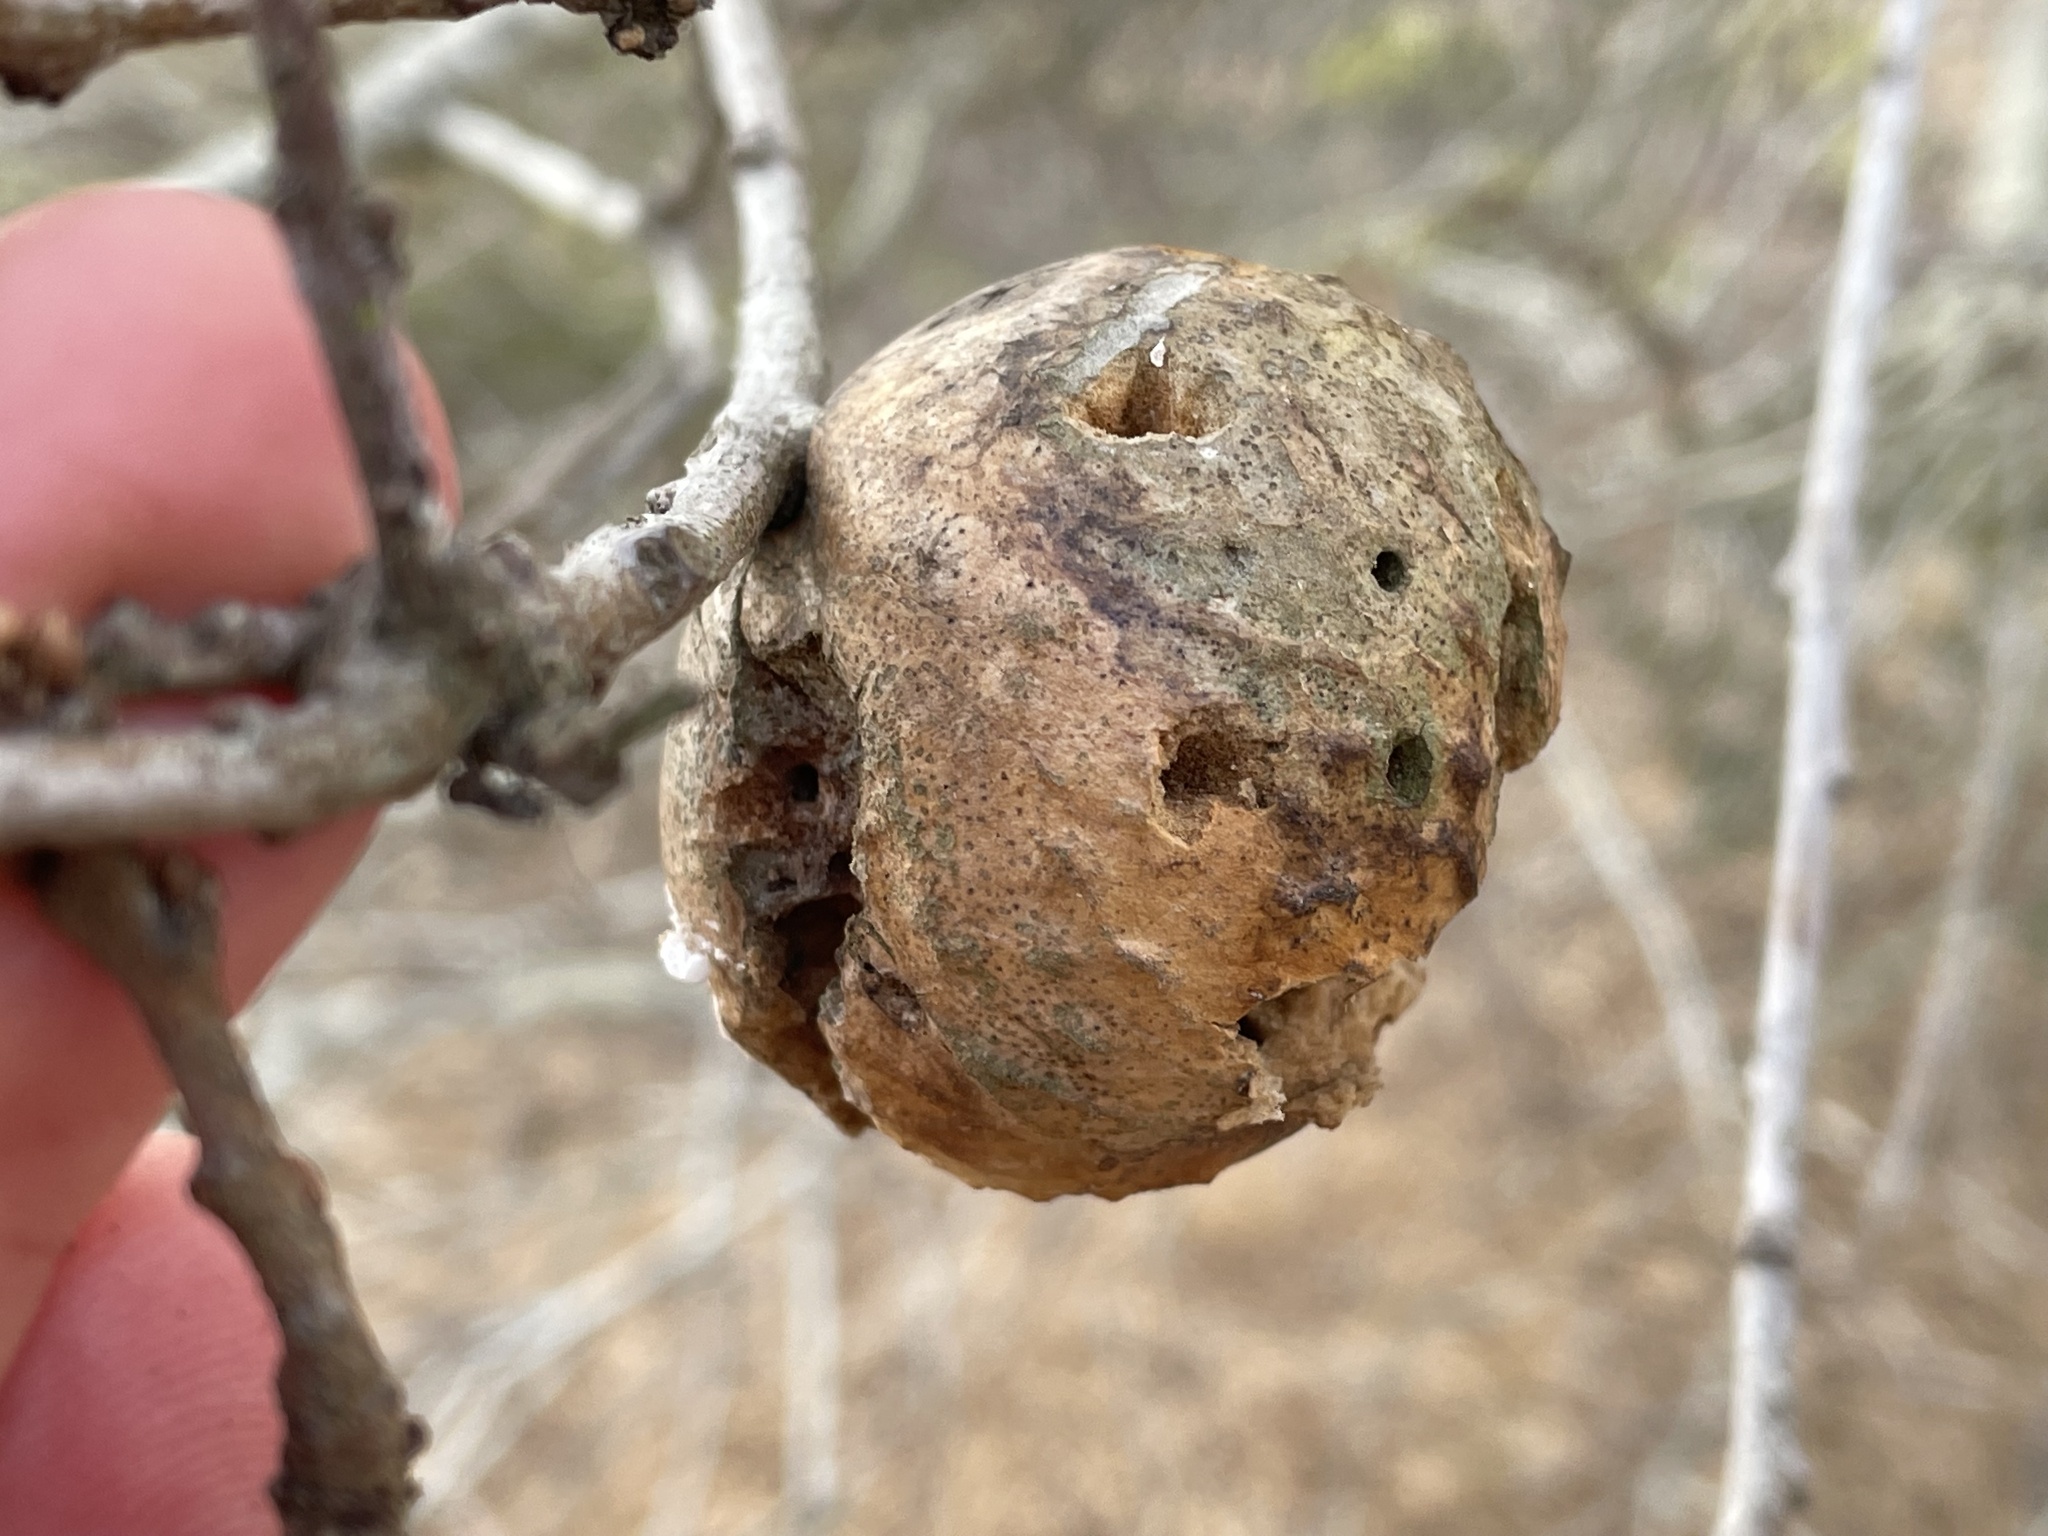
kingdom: Animalia
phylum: Arthropoda
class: Insecta
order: Hymenoptera
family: Cynipidae
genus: Amphibolips
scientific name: Amphibolips quercuspomiformis
